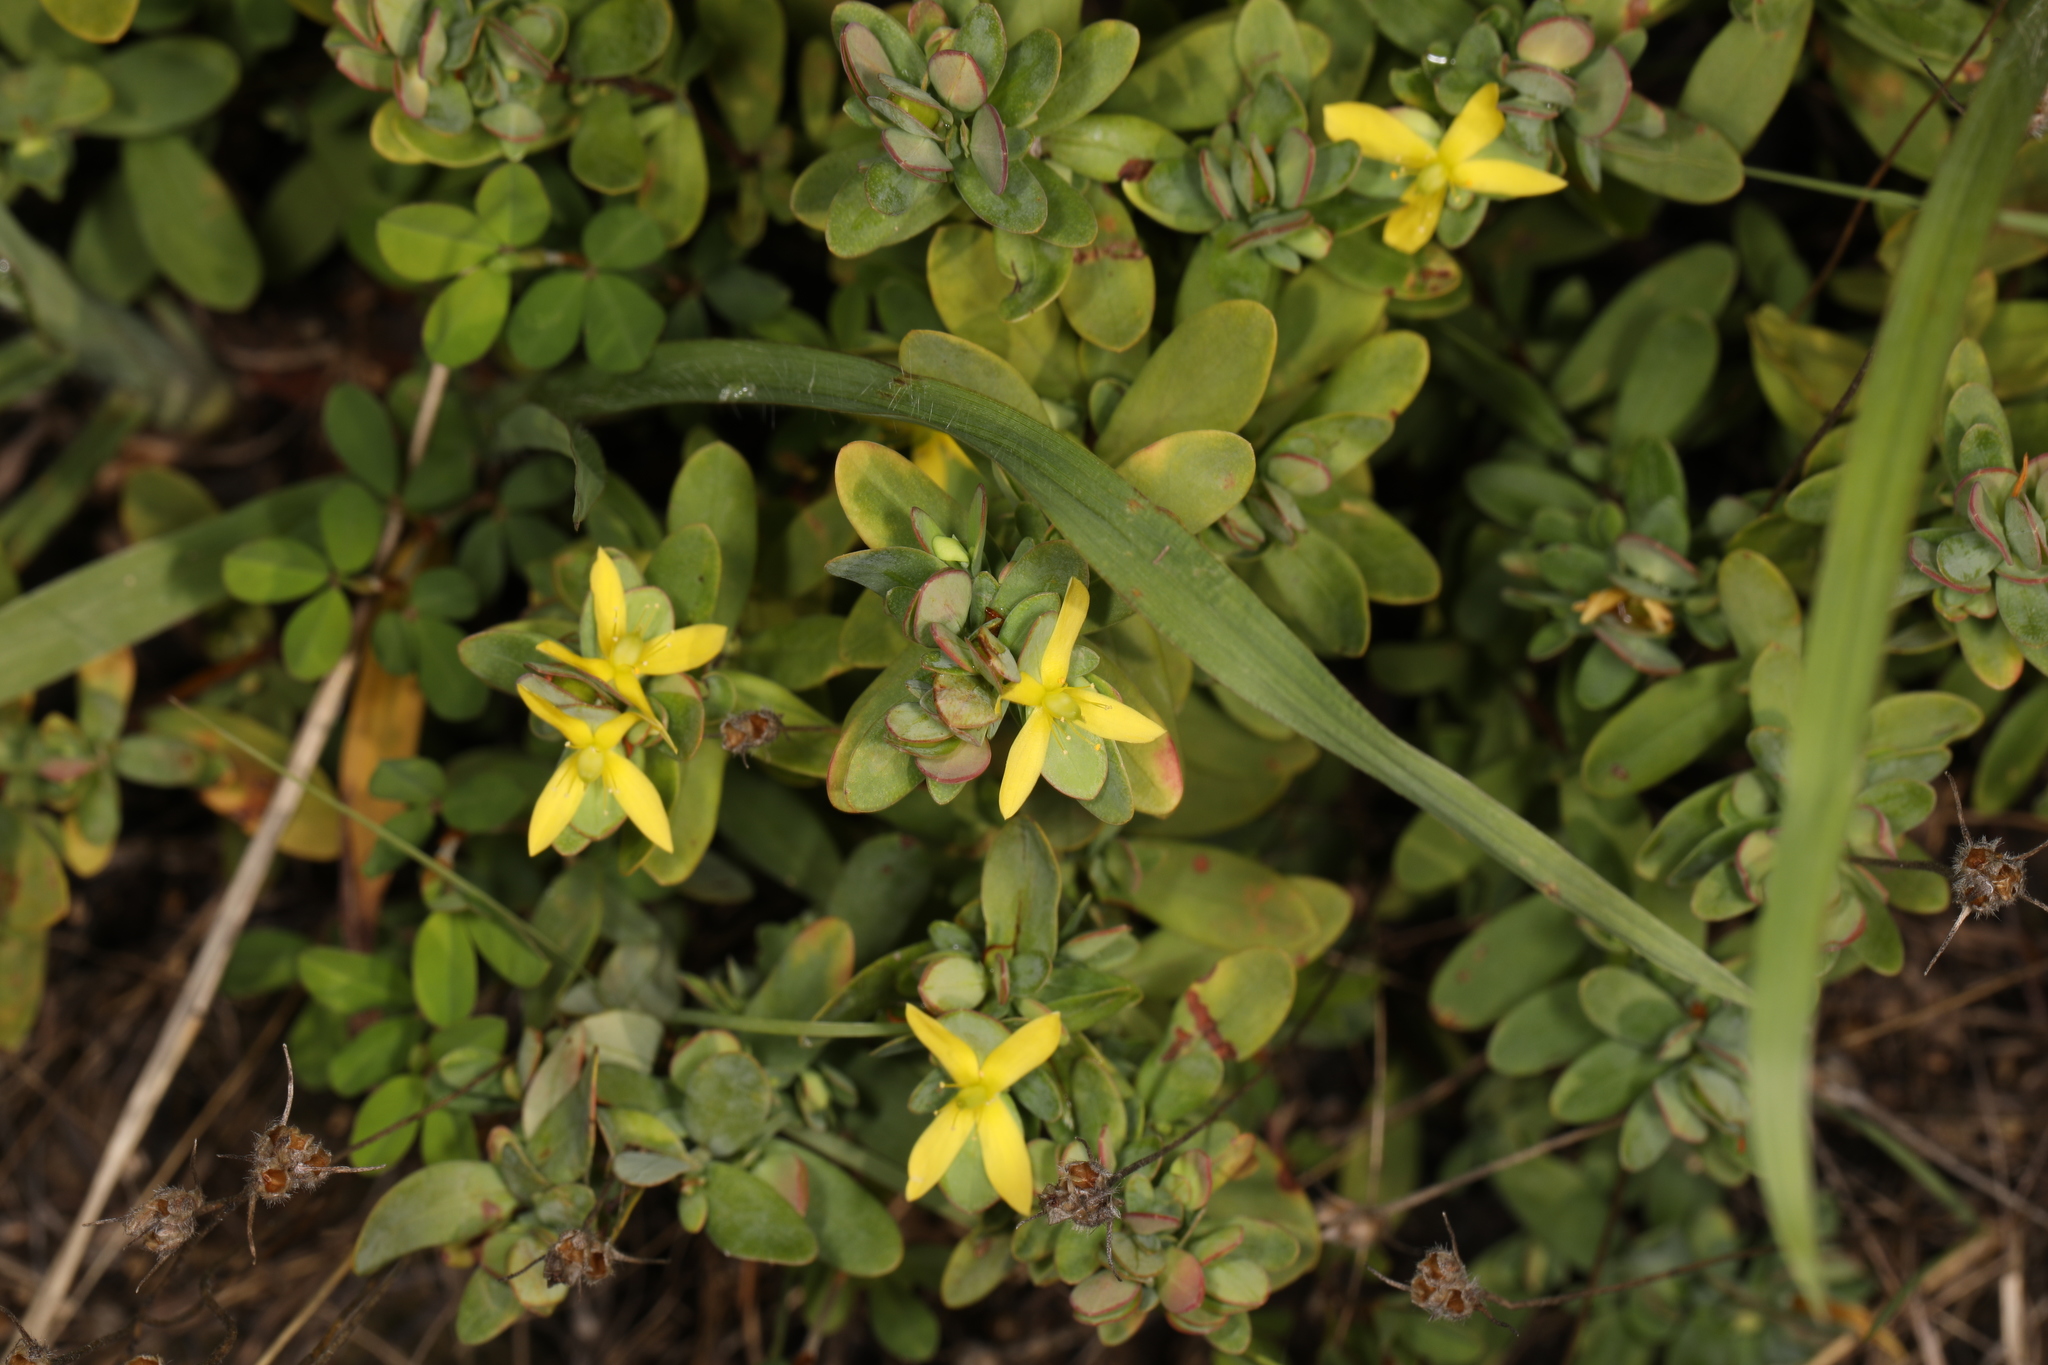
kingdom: Plantae
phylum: Tracheophyta
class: Magnoliopsida
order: Malpighiales
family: Hypericaceae
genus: Hypericum
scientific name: Hypericum hypericoides
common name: St. andrew's cross
